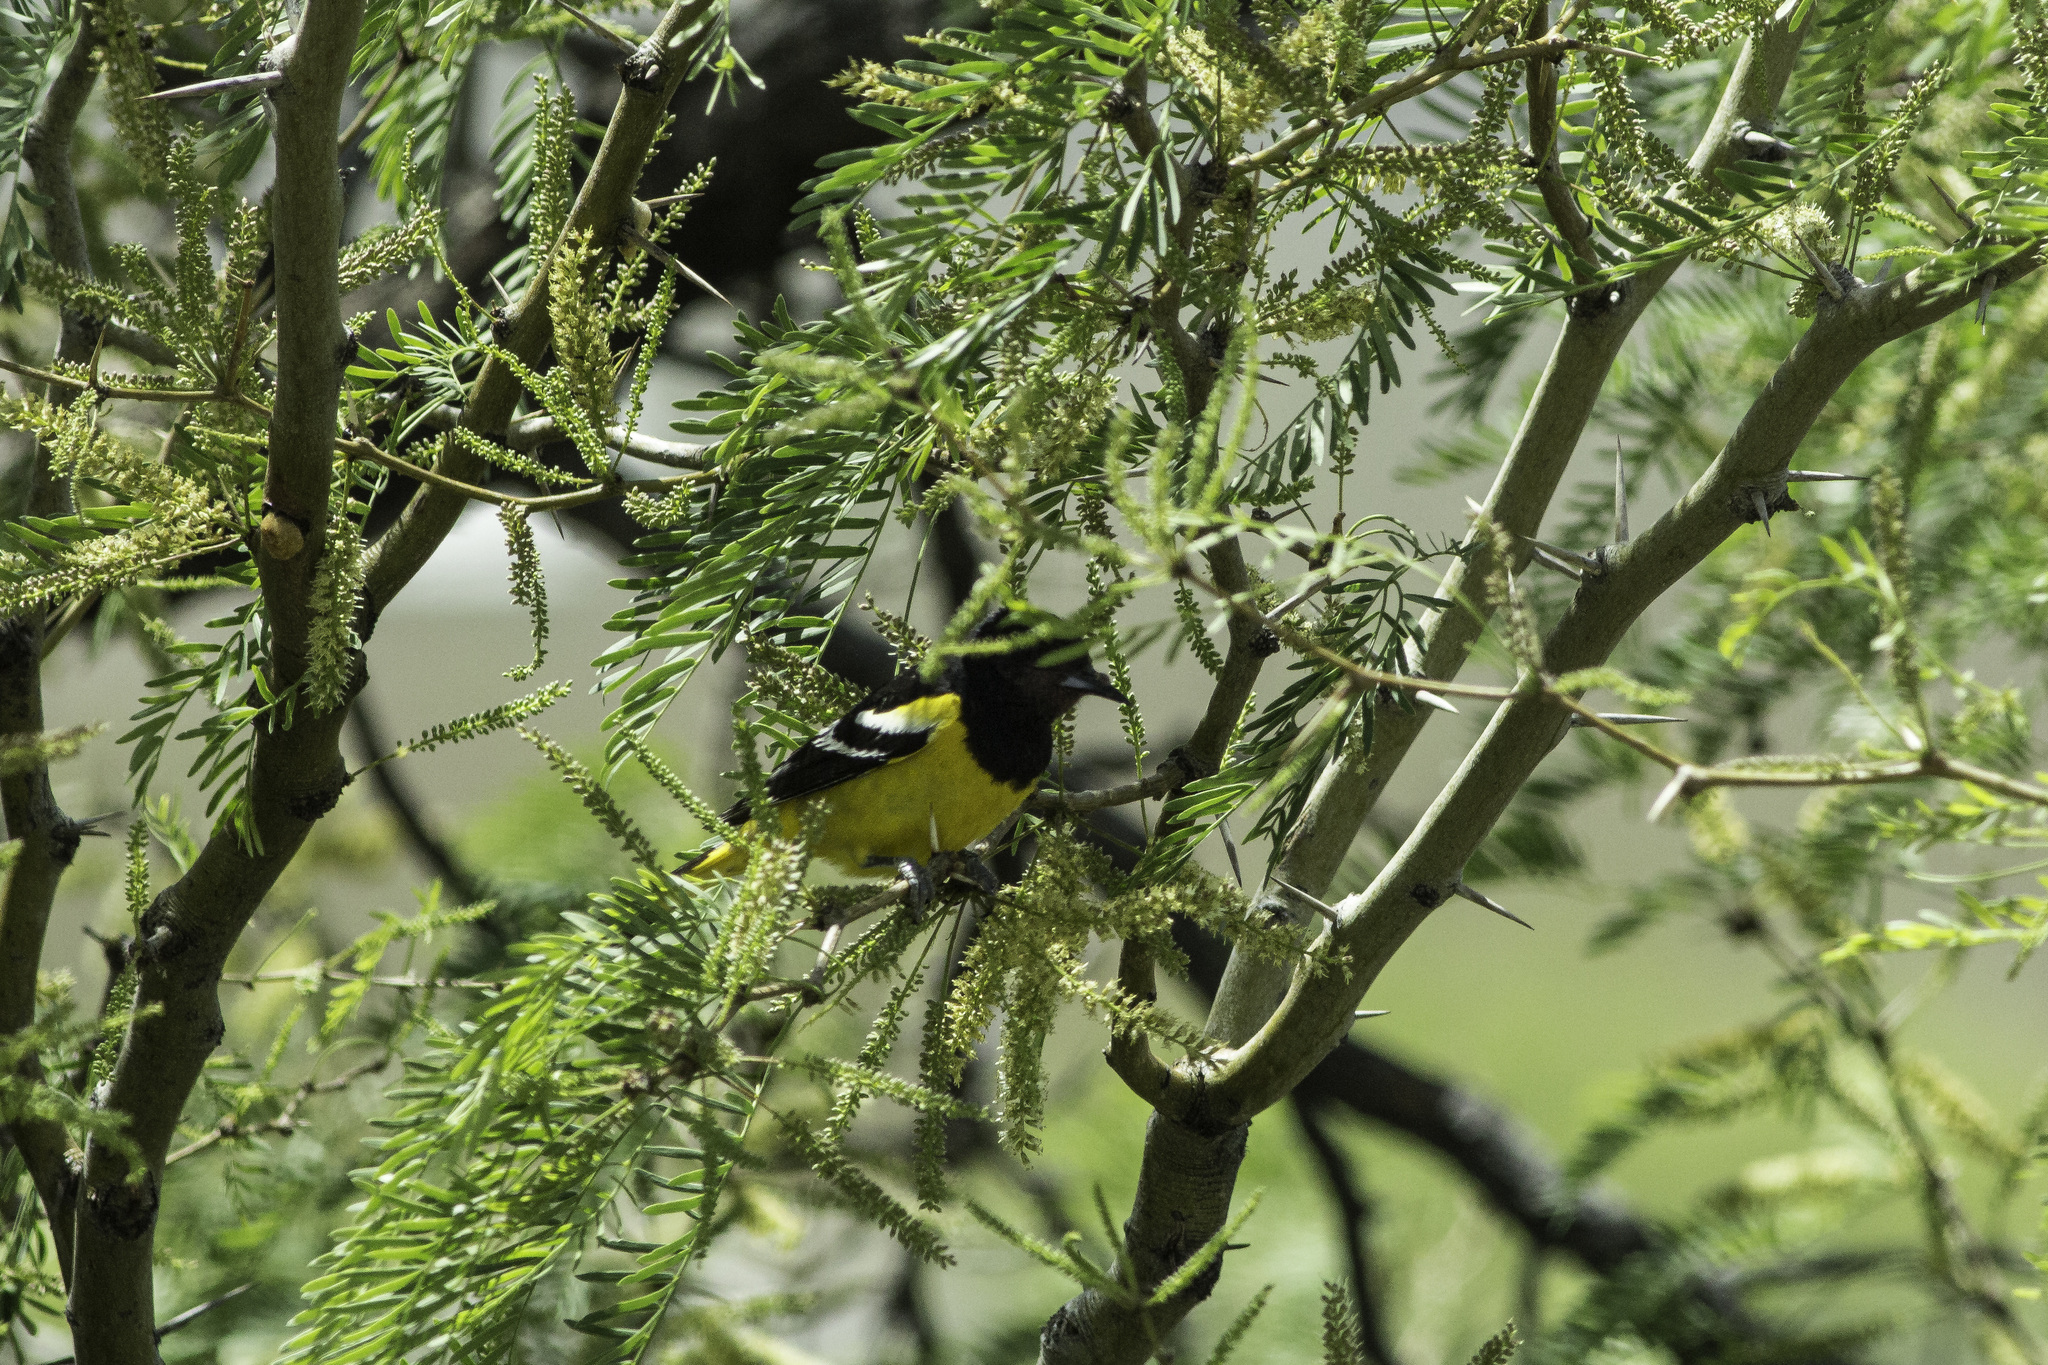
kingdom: Animalia
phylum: Chordata
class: Aves
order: Passeriformes
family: Icteridae
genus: Icterus
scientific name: Icterus parisorum
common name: Scott's oriole
